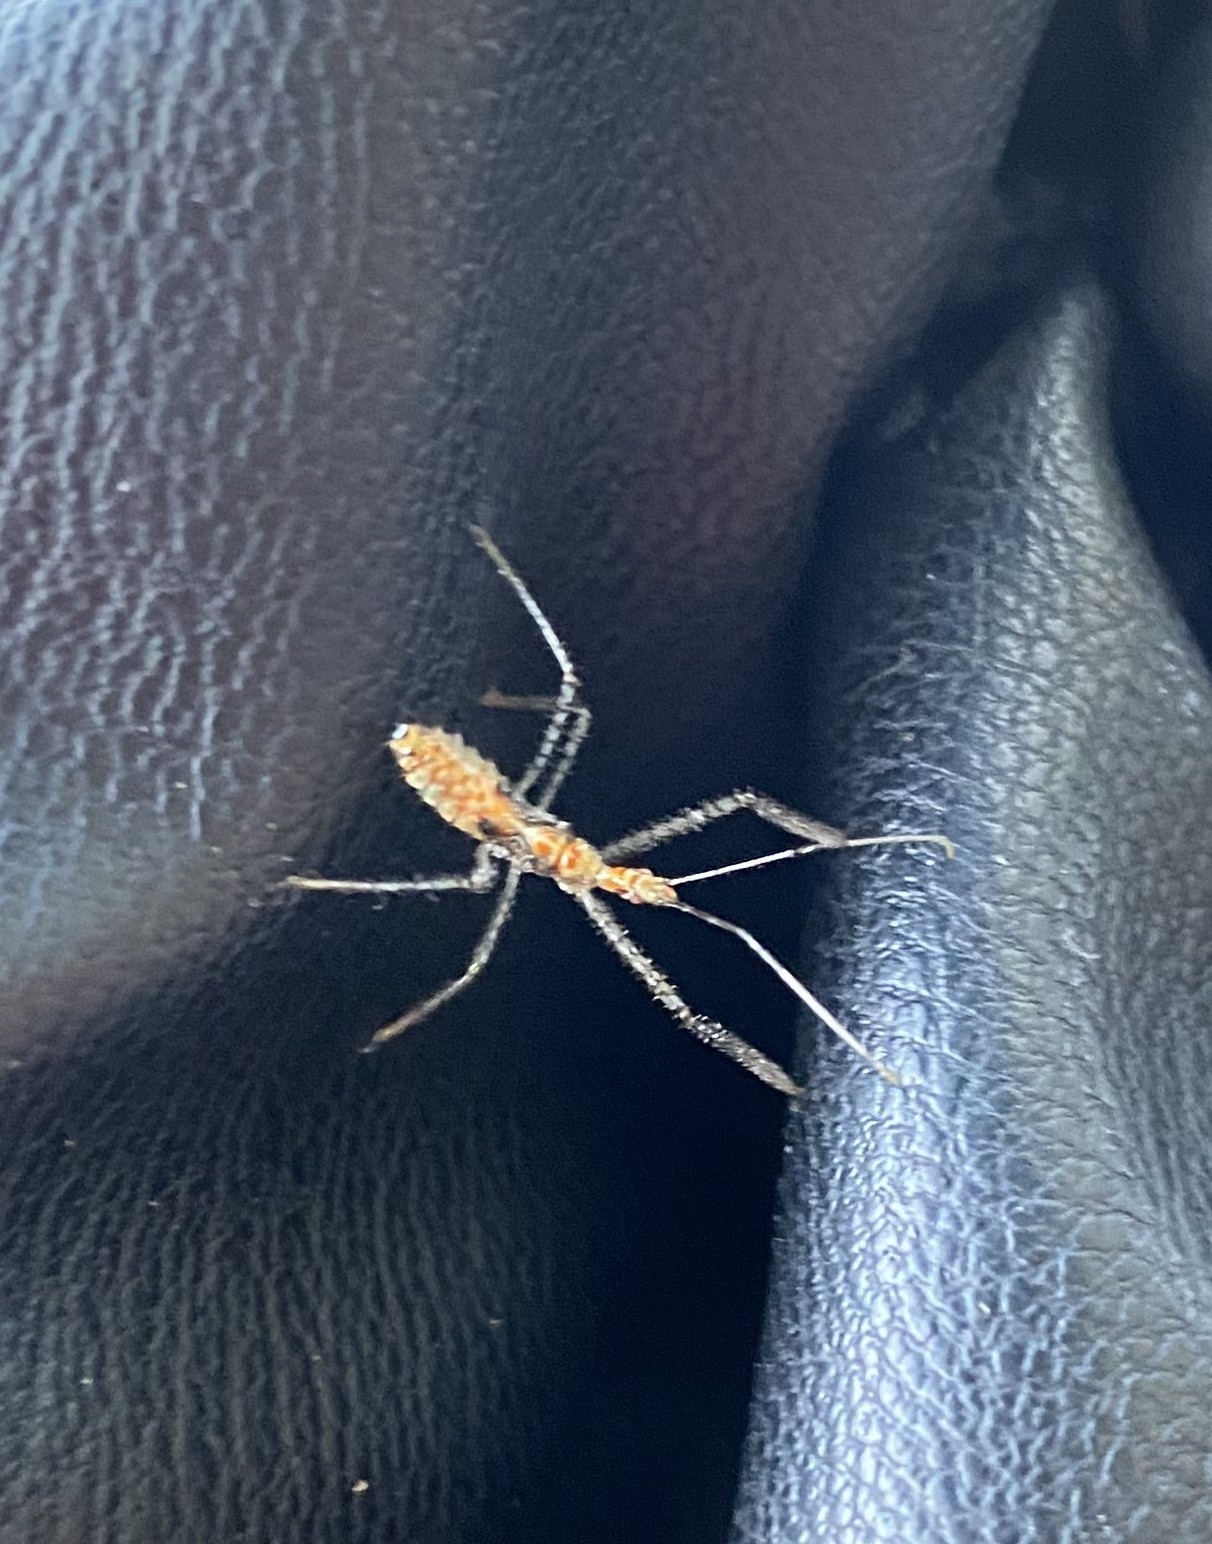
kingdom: Animalia
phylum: Arthropoda
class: Insecta
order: Hemiptera
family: Reduviidae
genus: Zelus
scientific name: Zelus renardii
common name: Assassin bug
